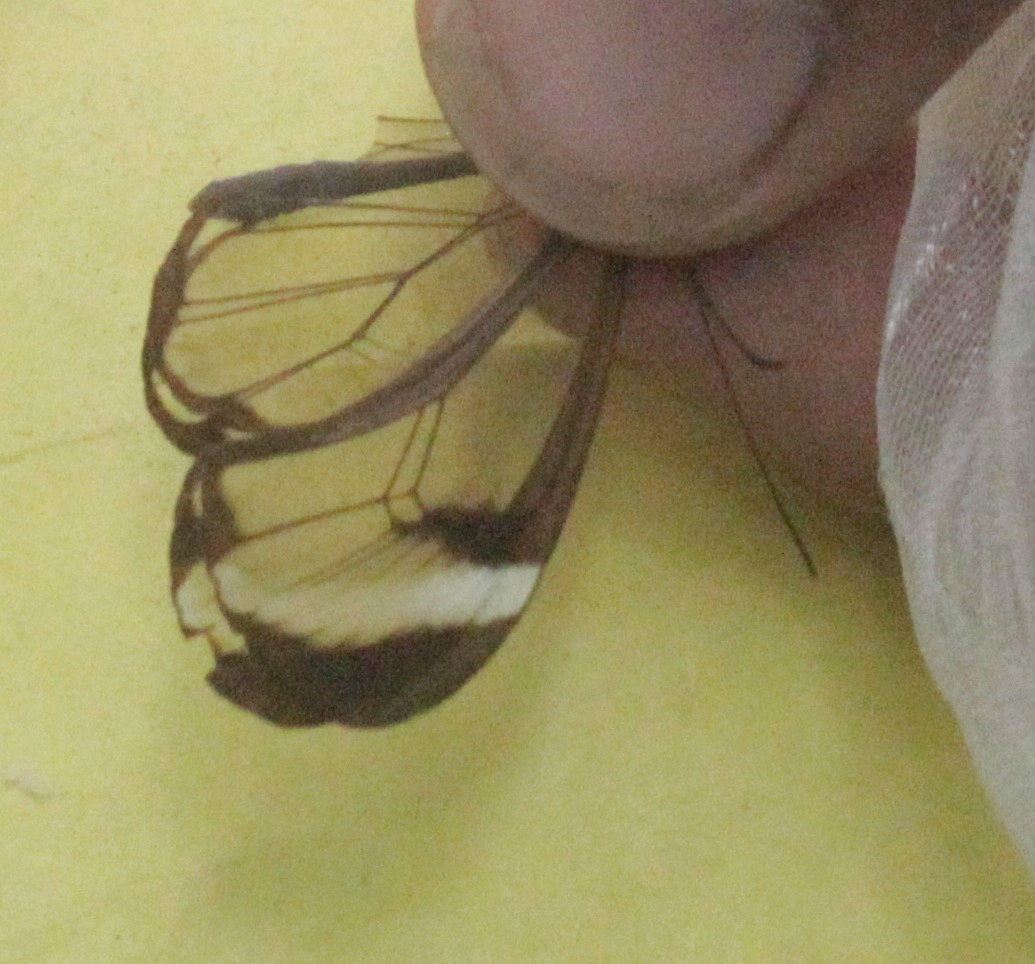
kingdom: Animalia
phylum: Arthropoda
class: Insecta
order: Lepidoptera
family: Nymphalidae
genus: Greta
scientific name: Greta morgane
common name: Thick-tipped greta
